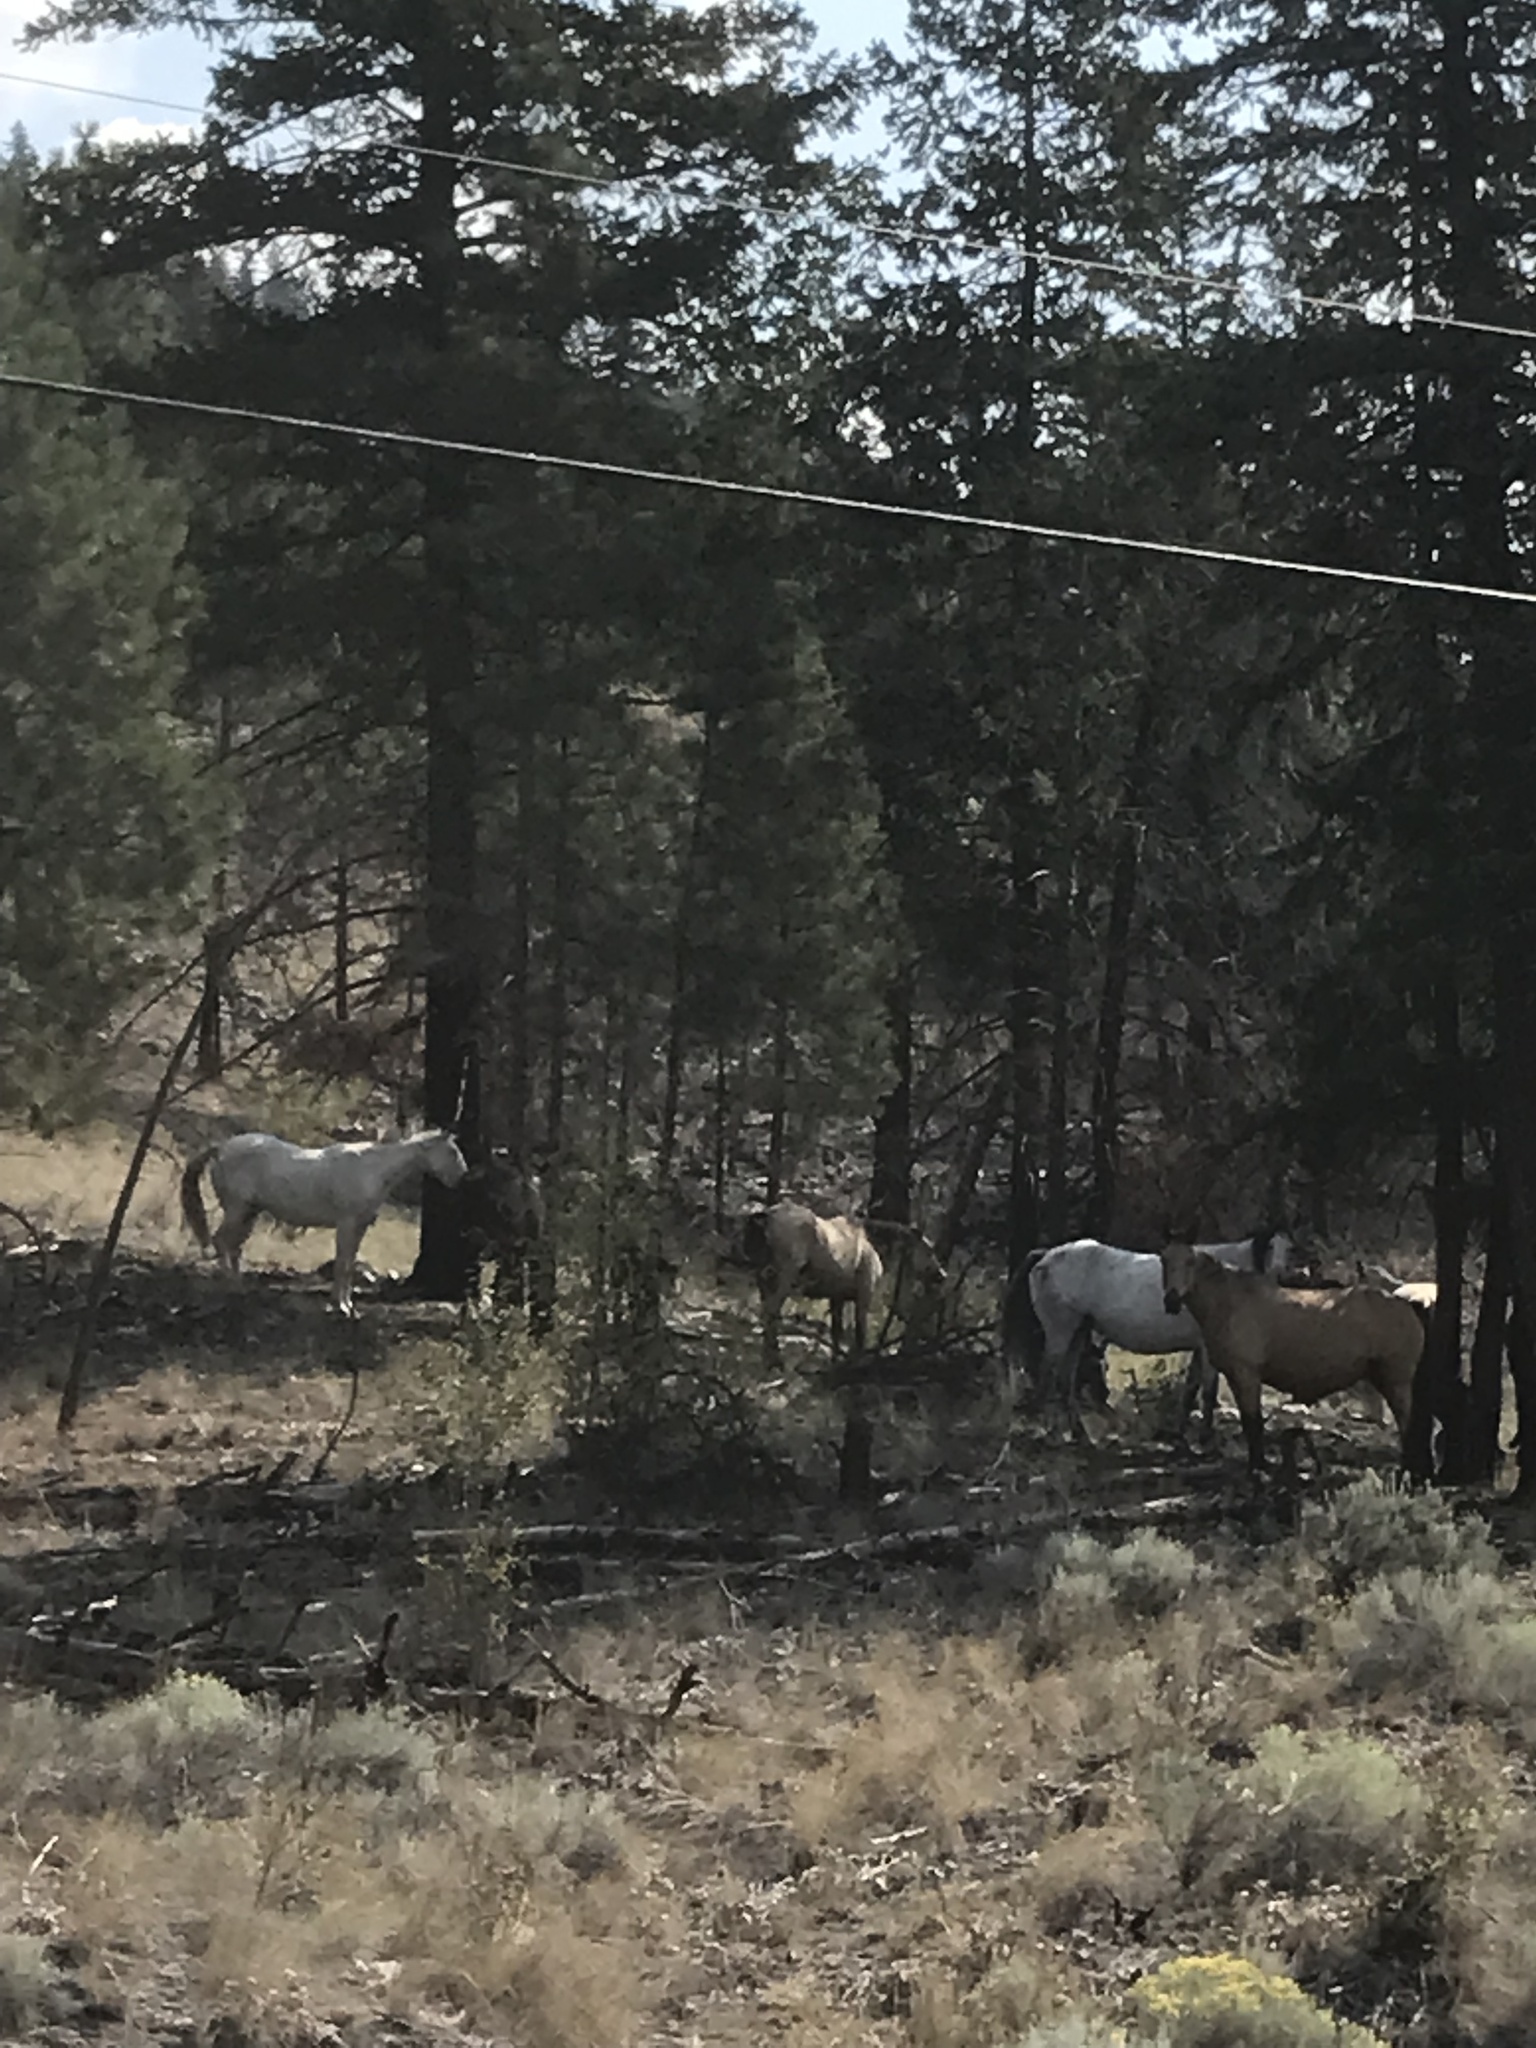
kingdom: Animalia
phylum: Chordata
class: Mammalia
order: Perissodactyla
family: Equidae
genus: Equus
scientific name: Equus caballus
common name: Horse
